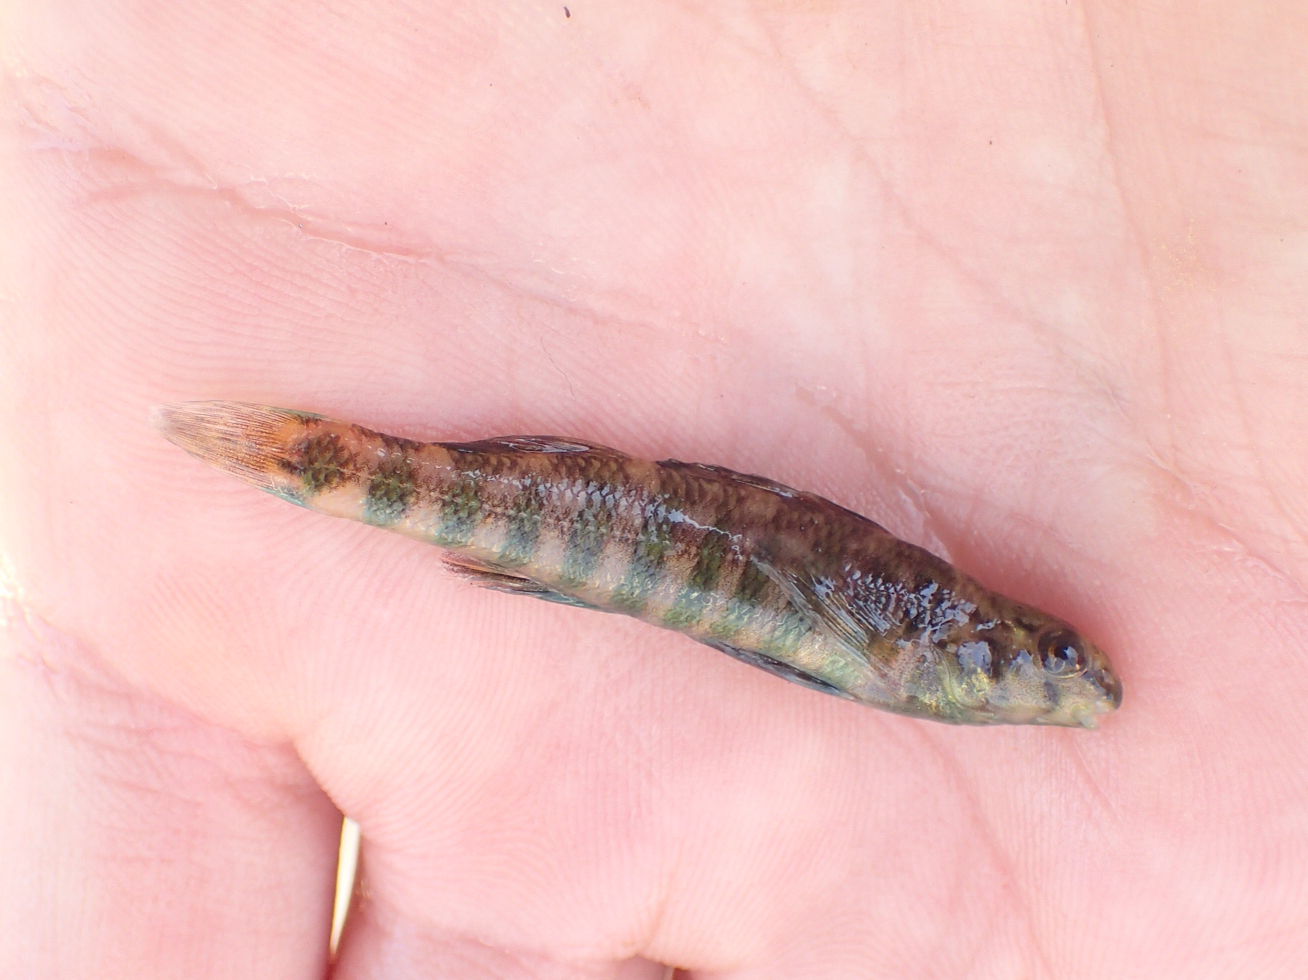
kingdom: Animalia
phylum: Chordata
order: Perciformes
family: Percidae
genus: Etheostoma
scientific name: Etheostoma zonale
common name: Banded darter
